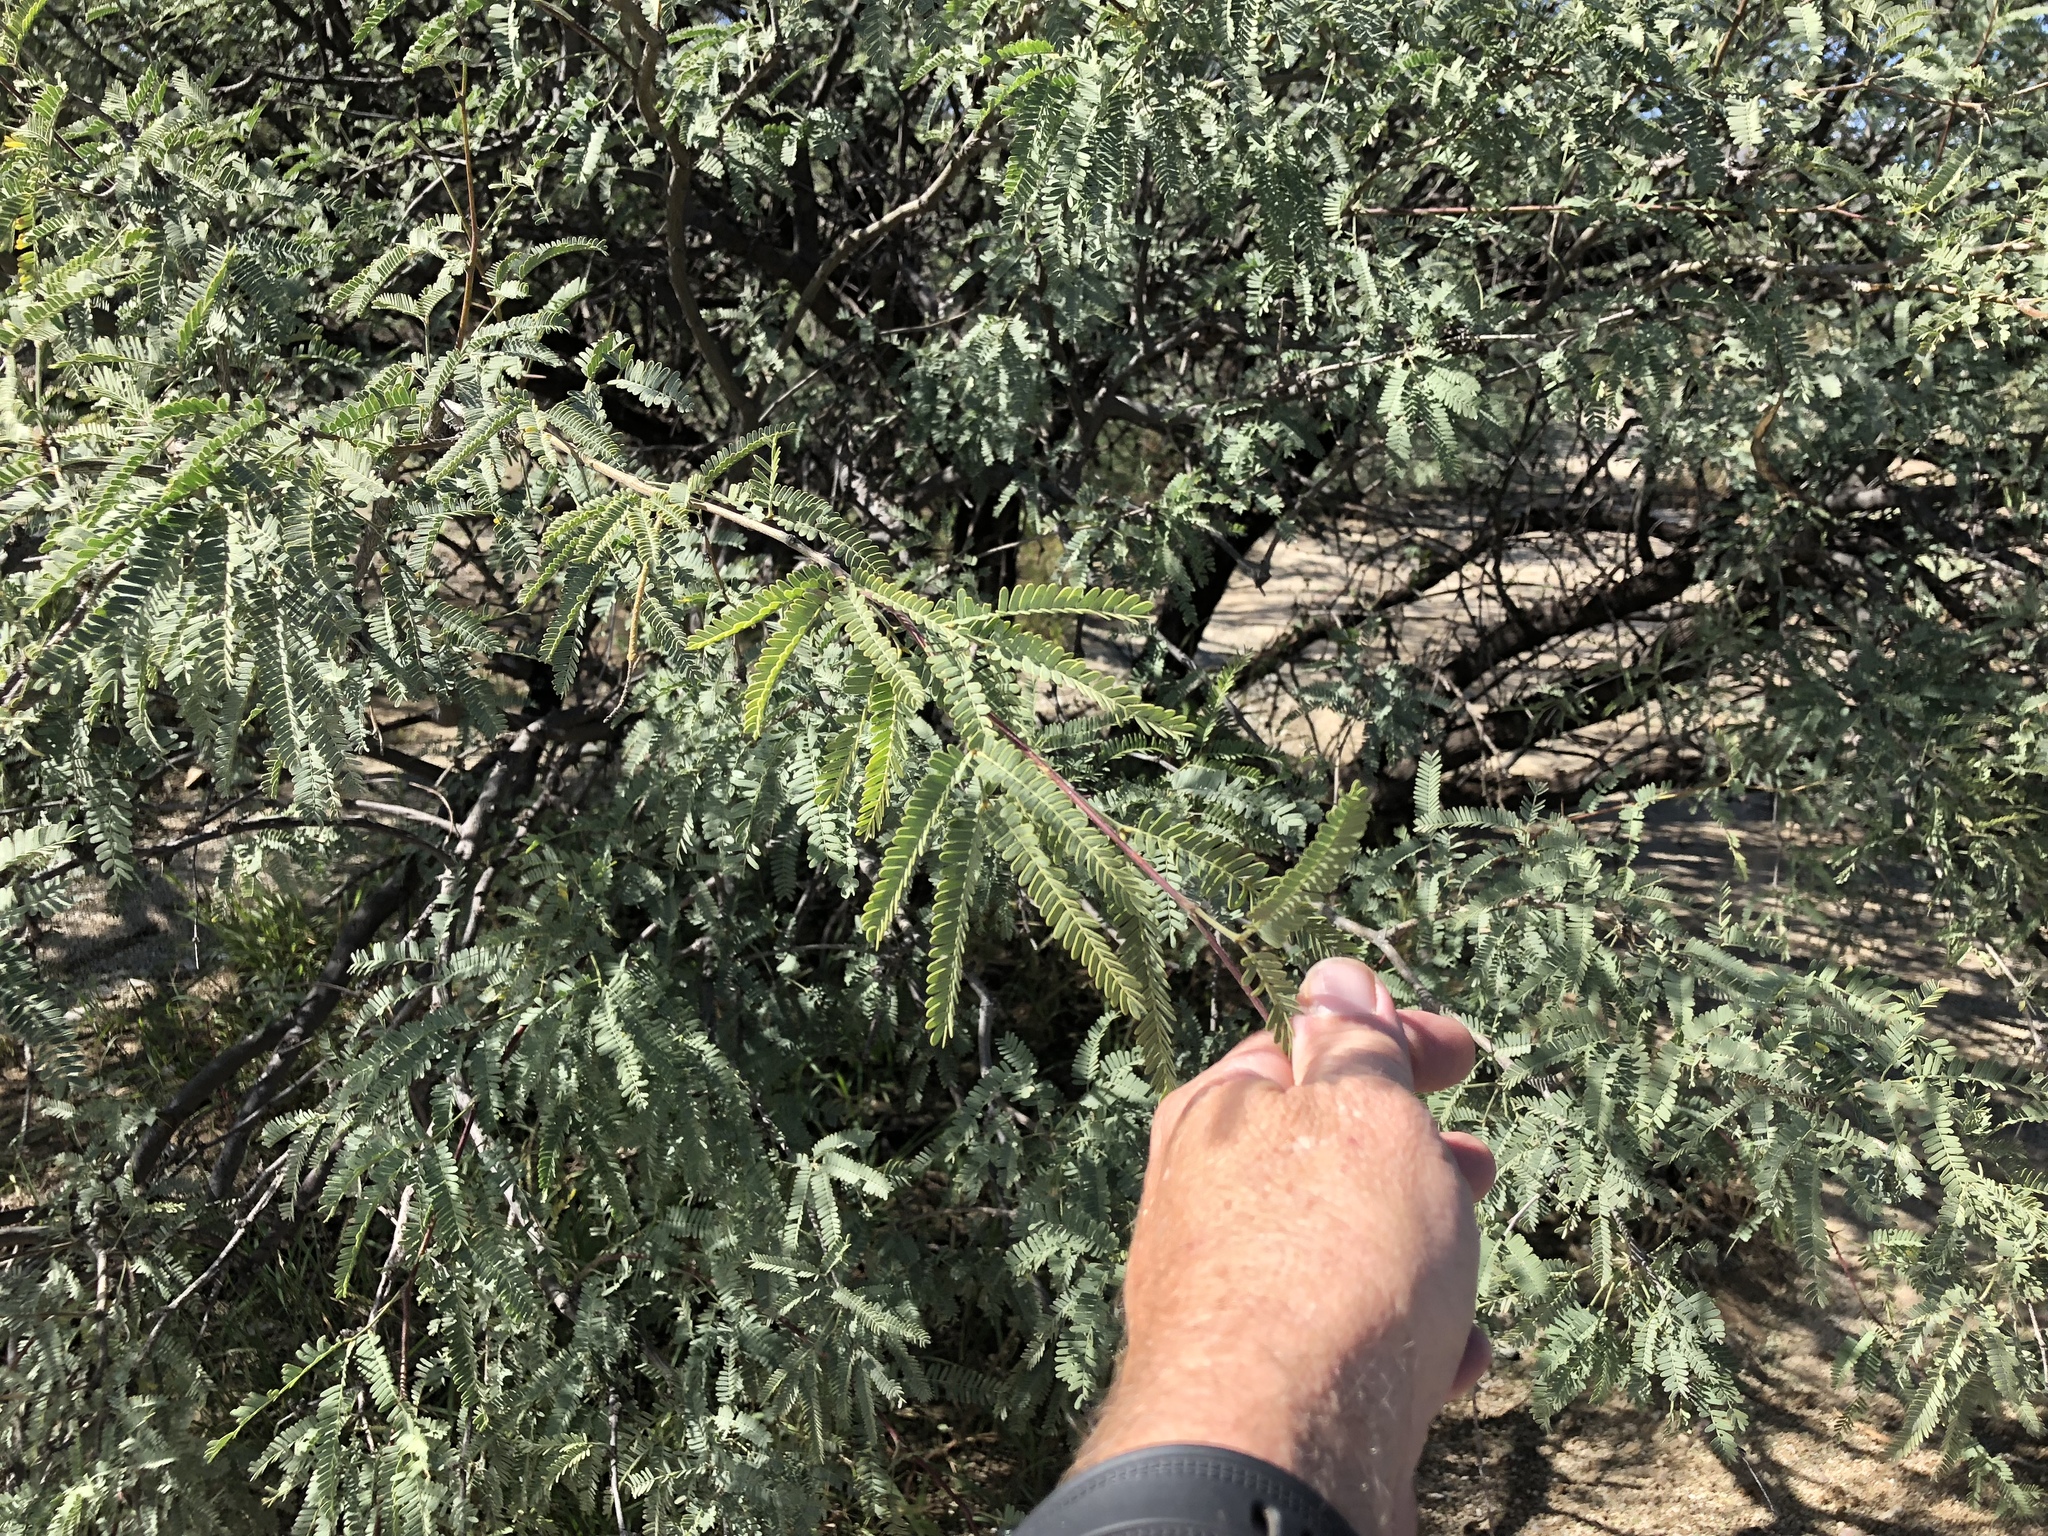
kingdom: Plantae
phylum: Tracheophyta
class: Magnoliopsida
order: Fabales
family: Fabaceae
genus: Prosopis
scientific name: Prosopis velutina
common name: Velvet mesquite
